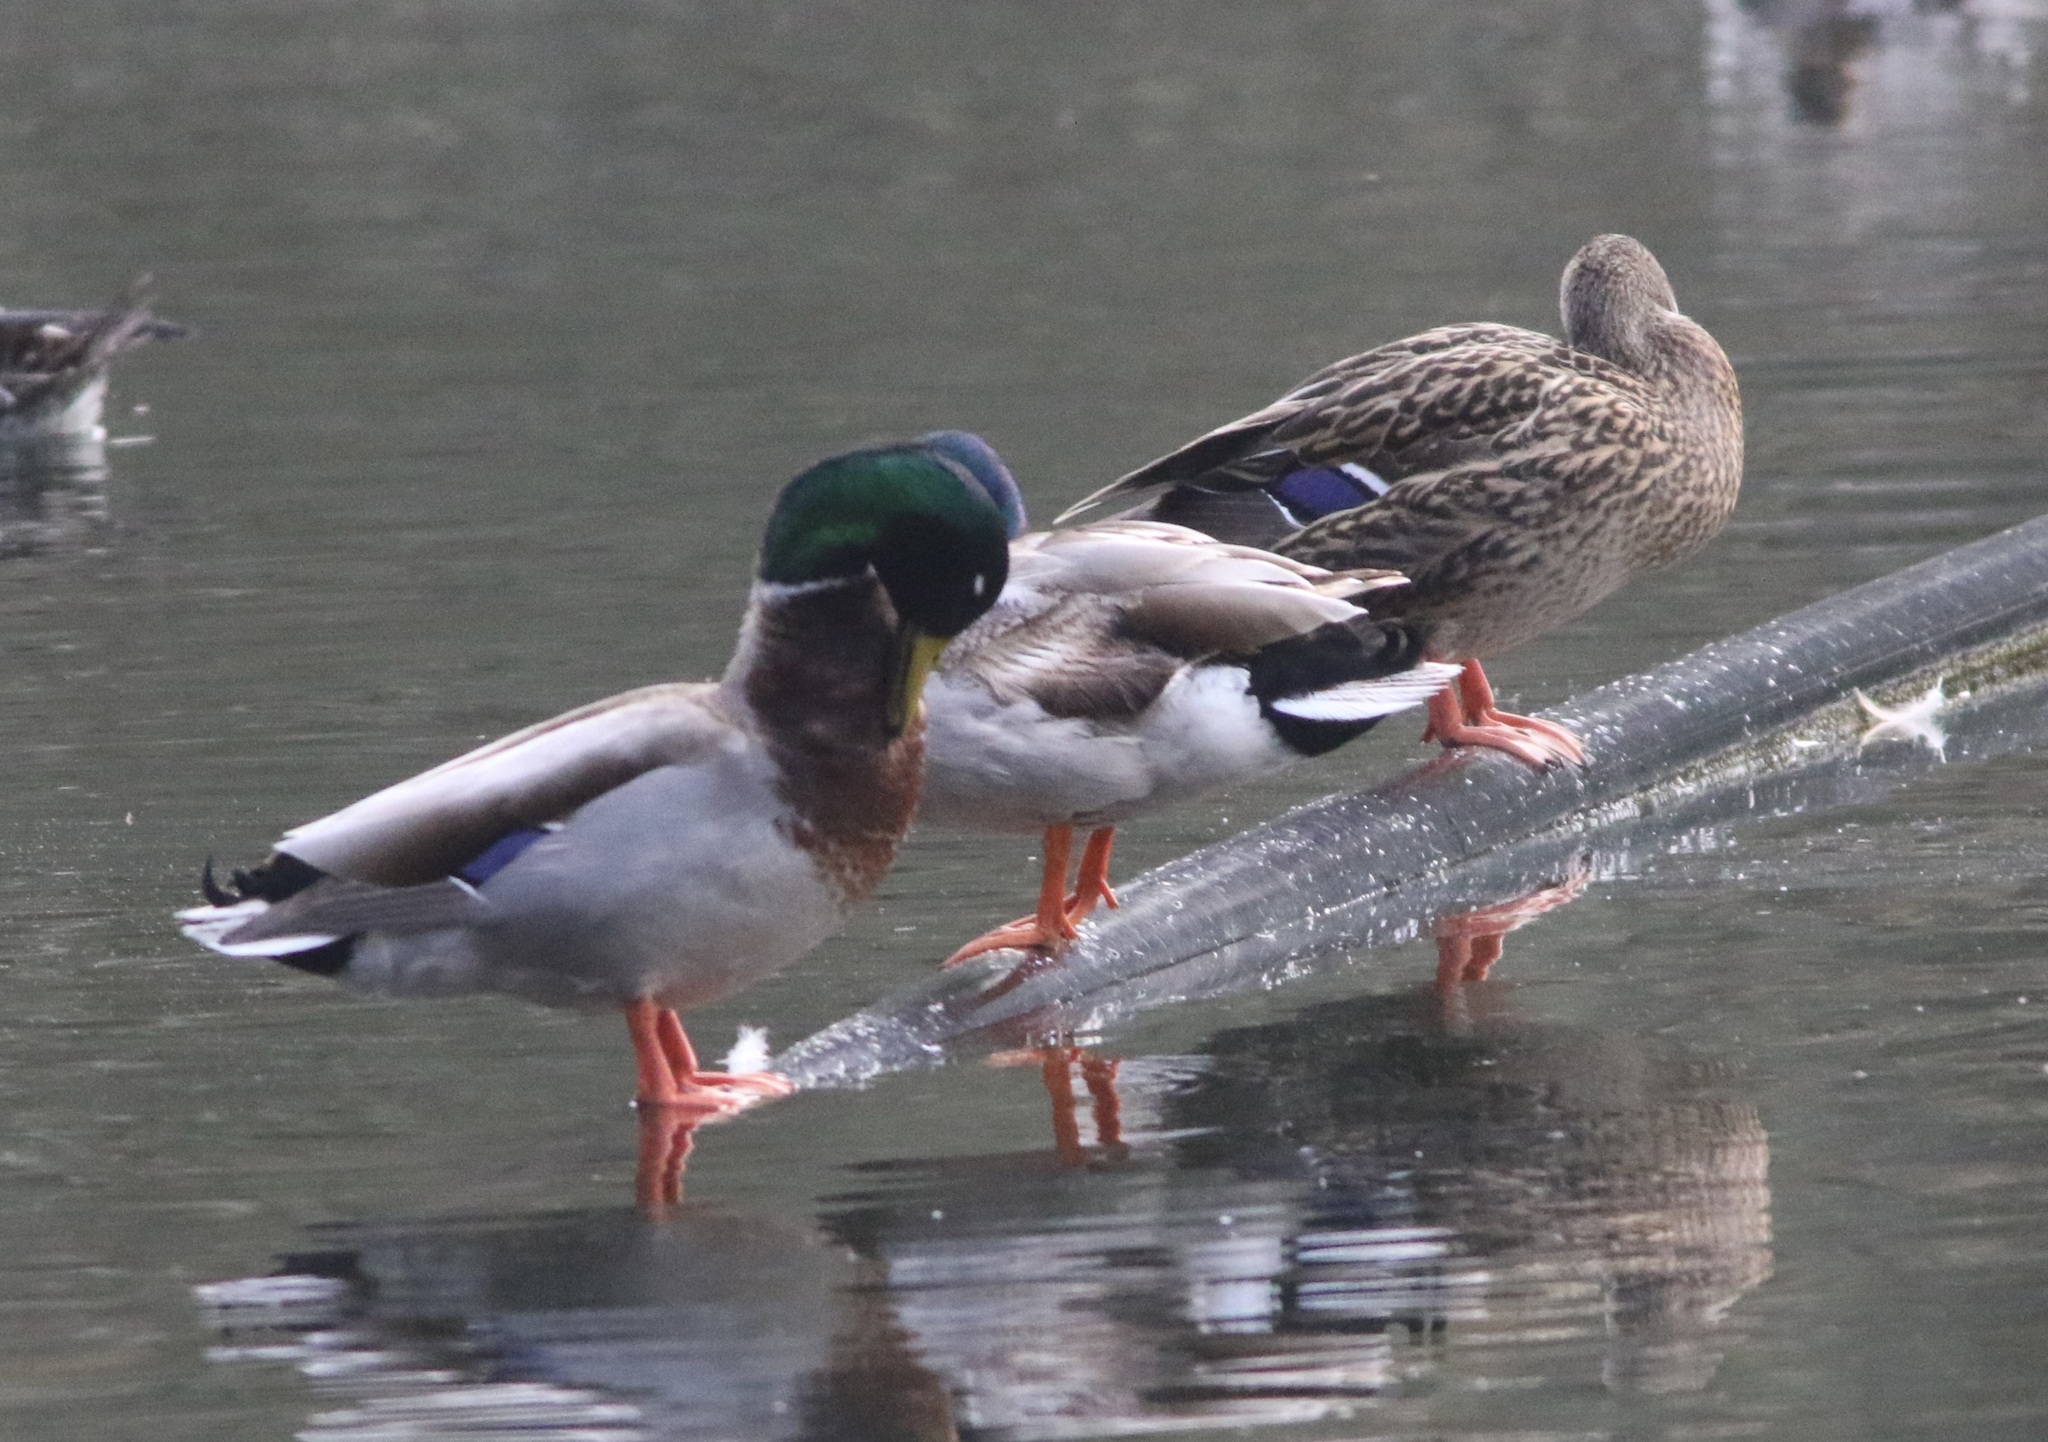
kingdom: Animalia
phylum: Chordata
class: Aves
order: Anseriformes
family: Anatidae
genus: Anas
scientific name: Anas platyrhynchos
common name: Mallard
